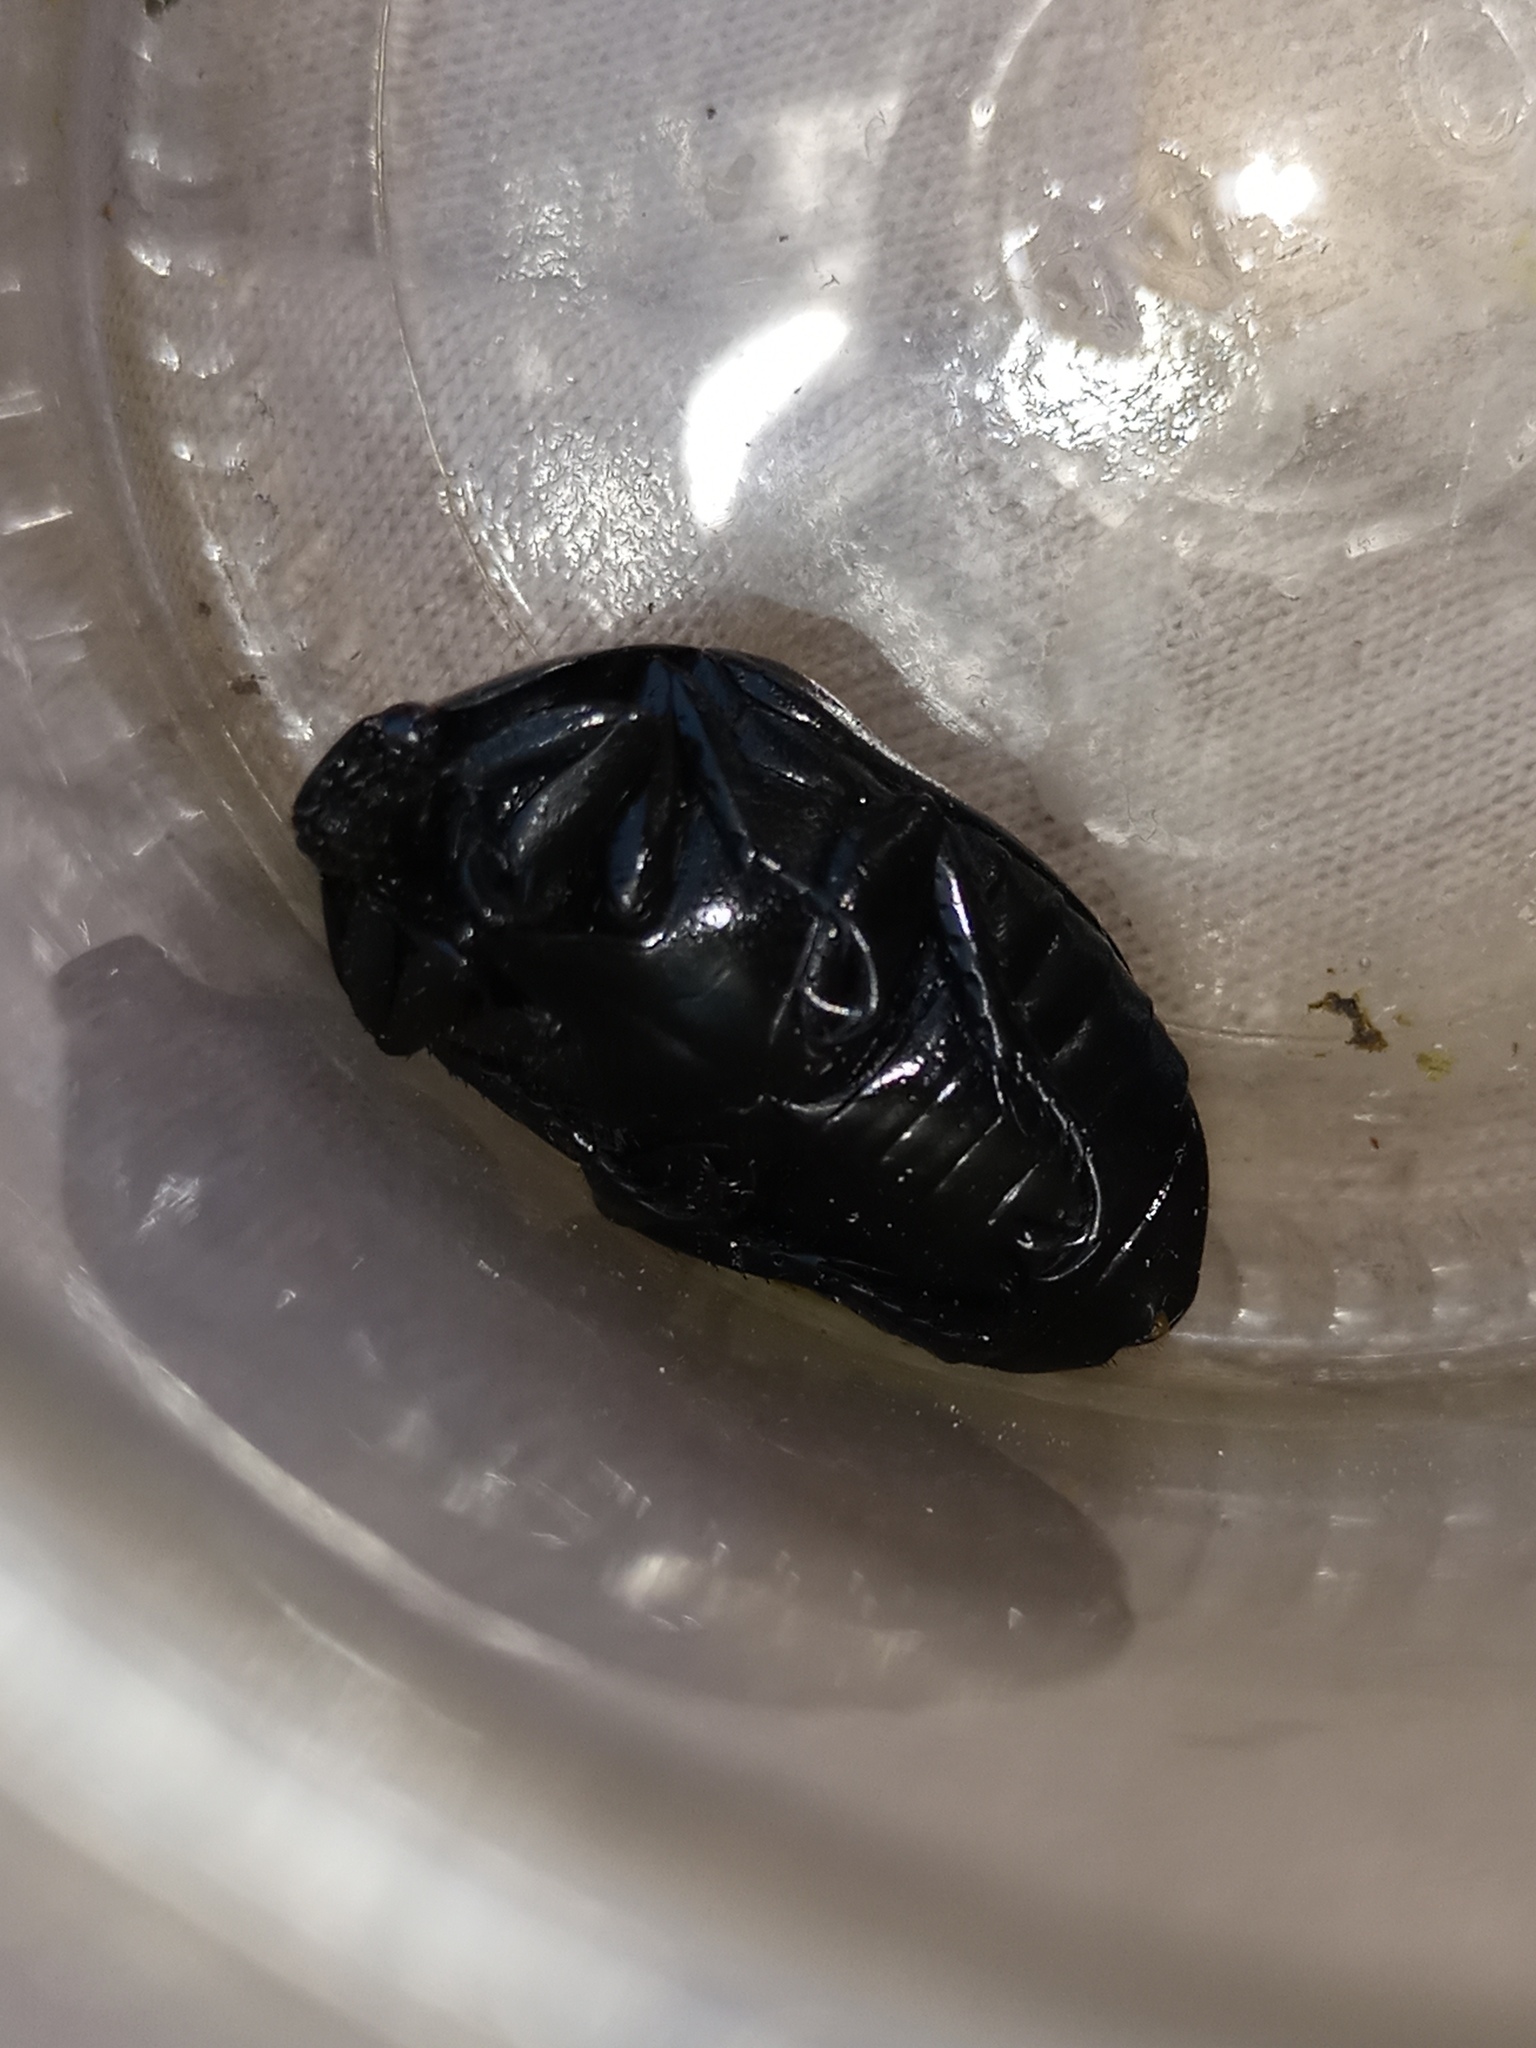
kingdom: Animalia
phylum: Arthropoda
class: Insecta
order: Coleoptera
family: Scarabaeidae
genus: Macraspis
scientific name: Macraspis morio
